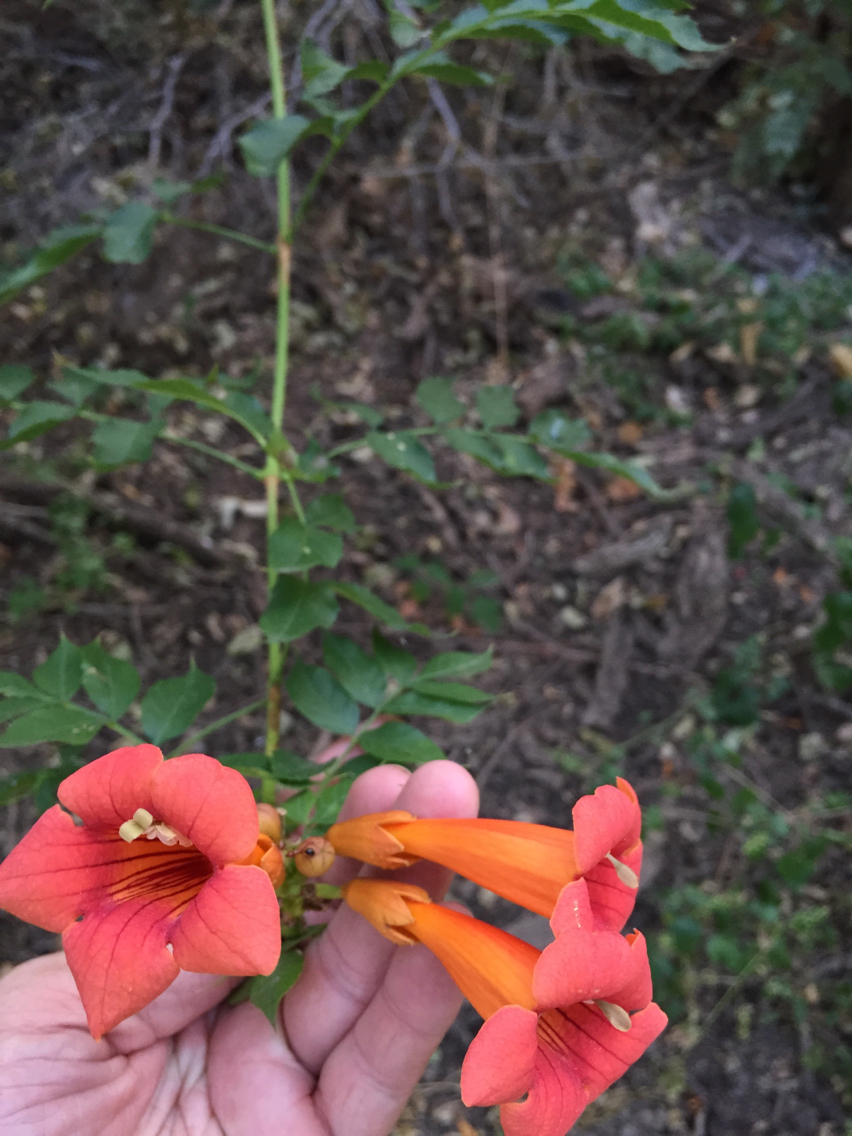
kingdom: Plantae
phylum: Tracheophyta
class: Magnoliopsida
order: Lamiales
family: Bignoniaceae
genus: Campsis
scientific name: Campsis radicans
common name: Trumpet-creeper
